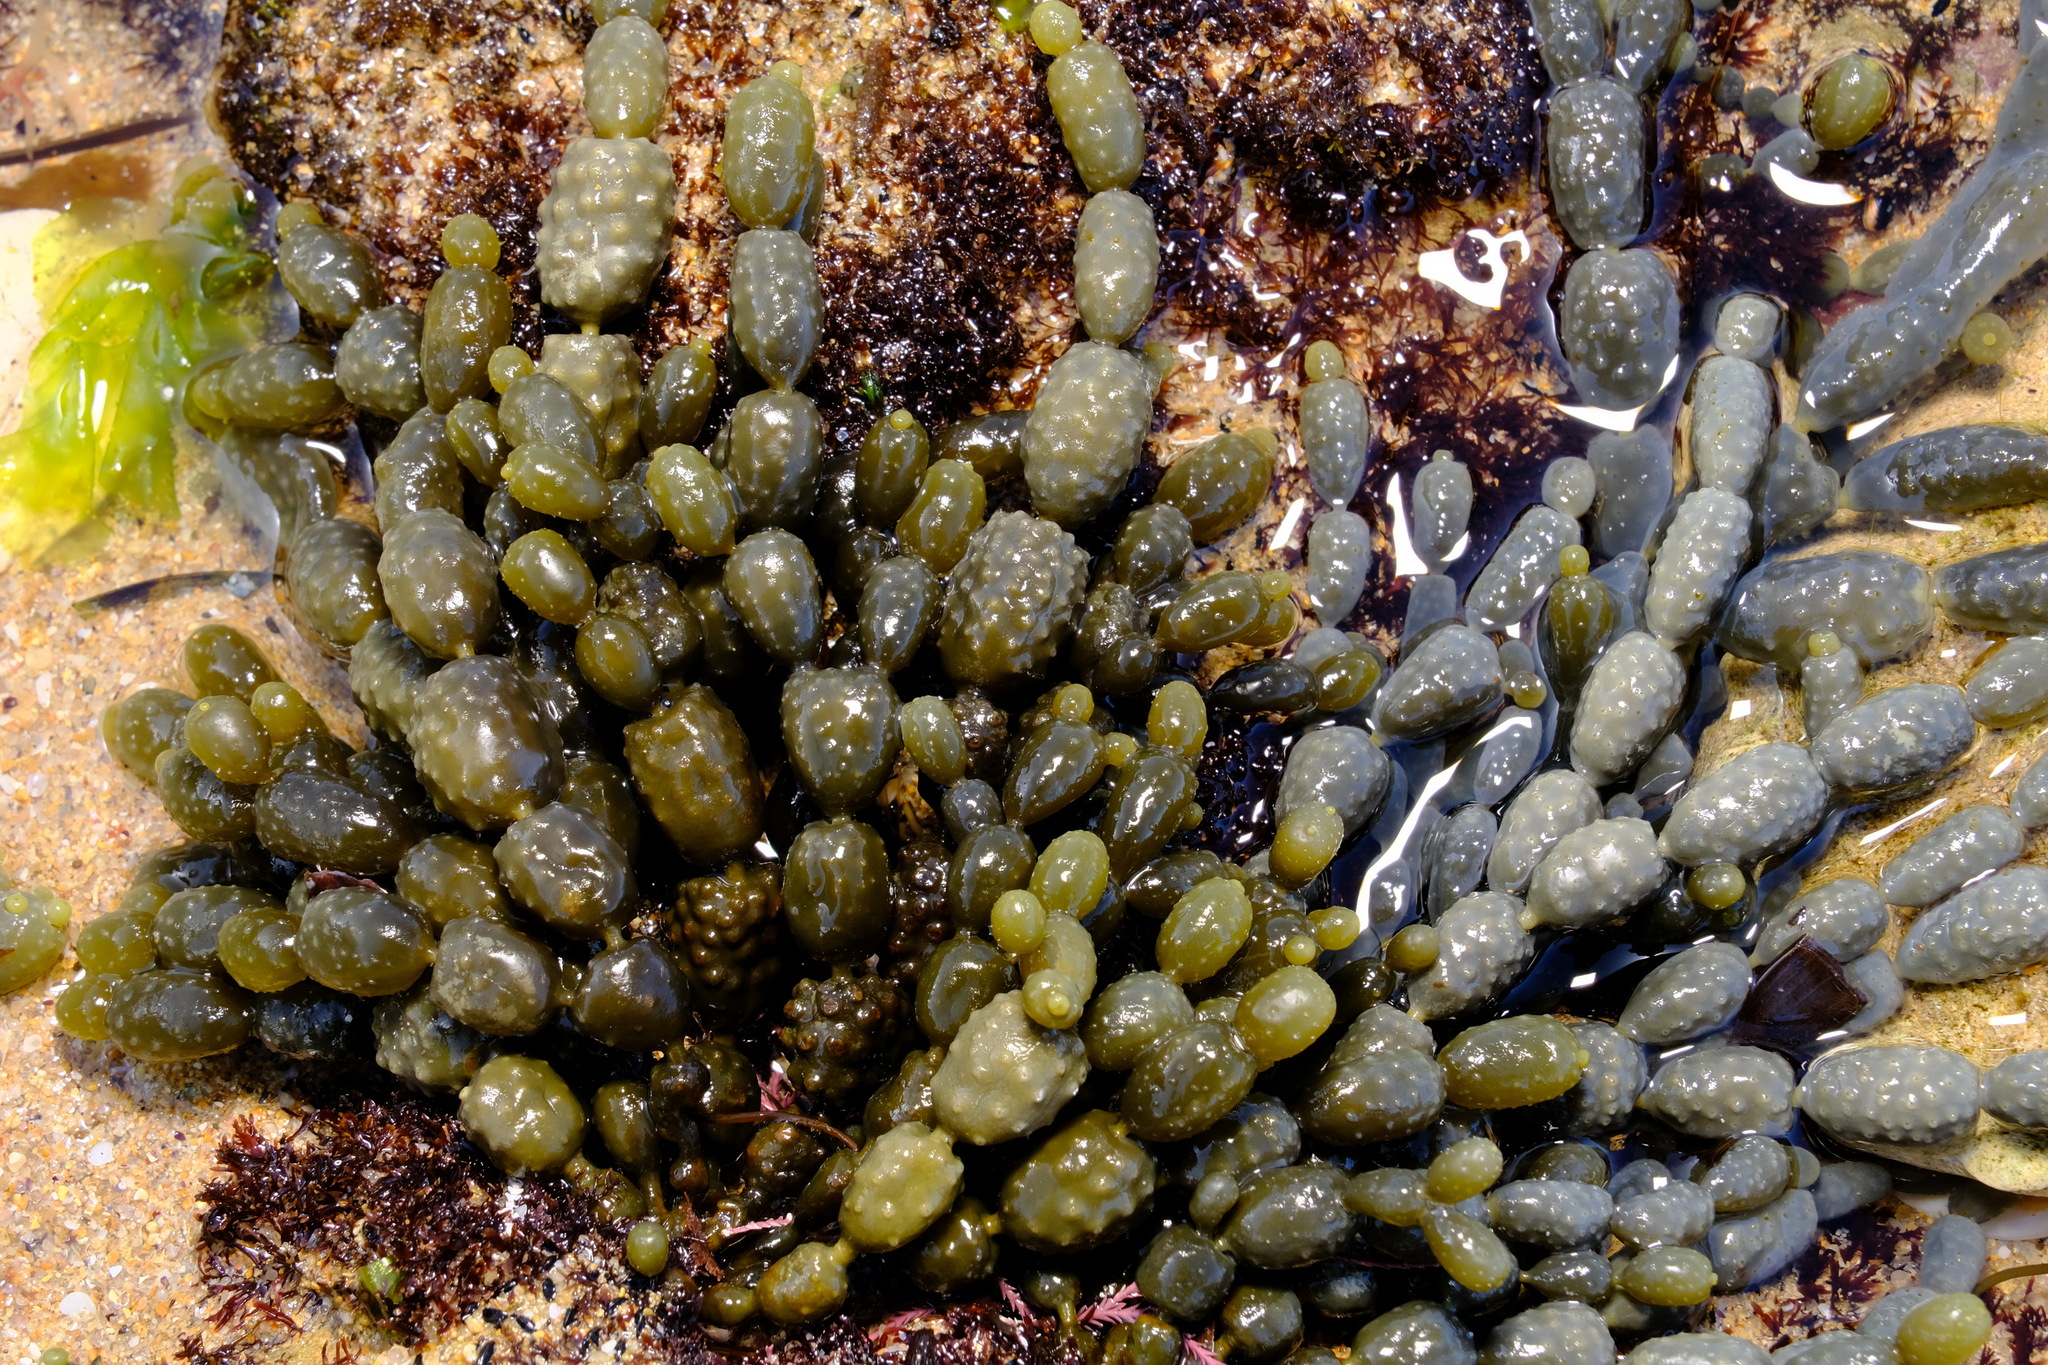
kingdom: Chromista
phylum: Ochrophyta
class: Phaeophyceae
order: Fucales
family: Hormosiraceae
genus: Hormosira
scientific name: Hormosira banksii
